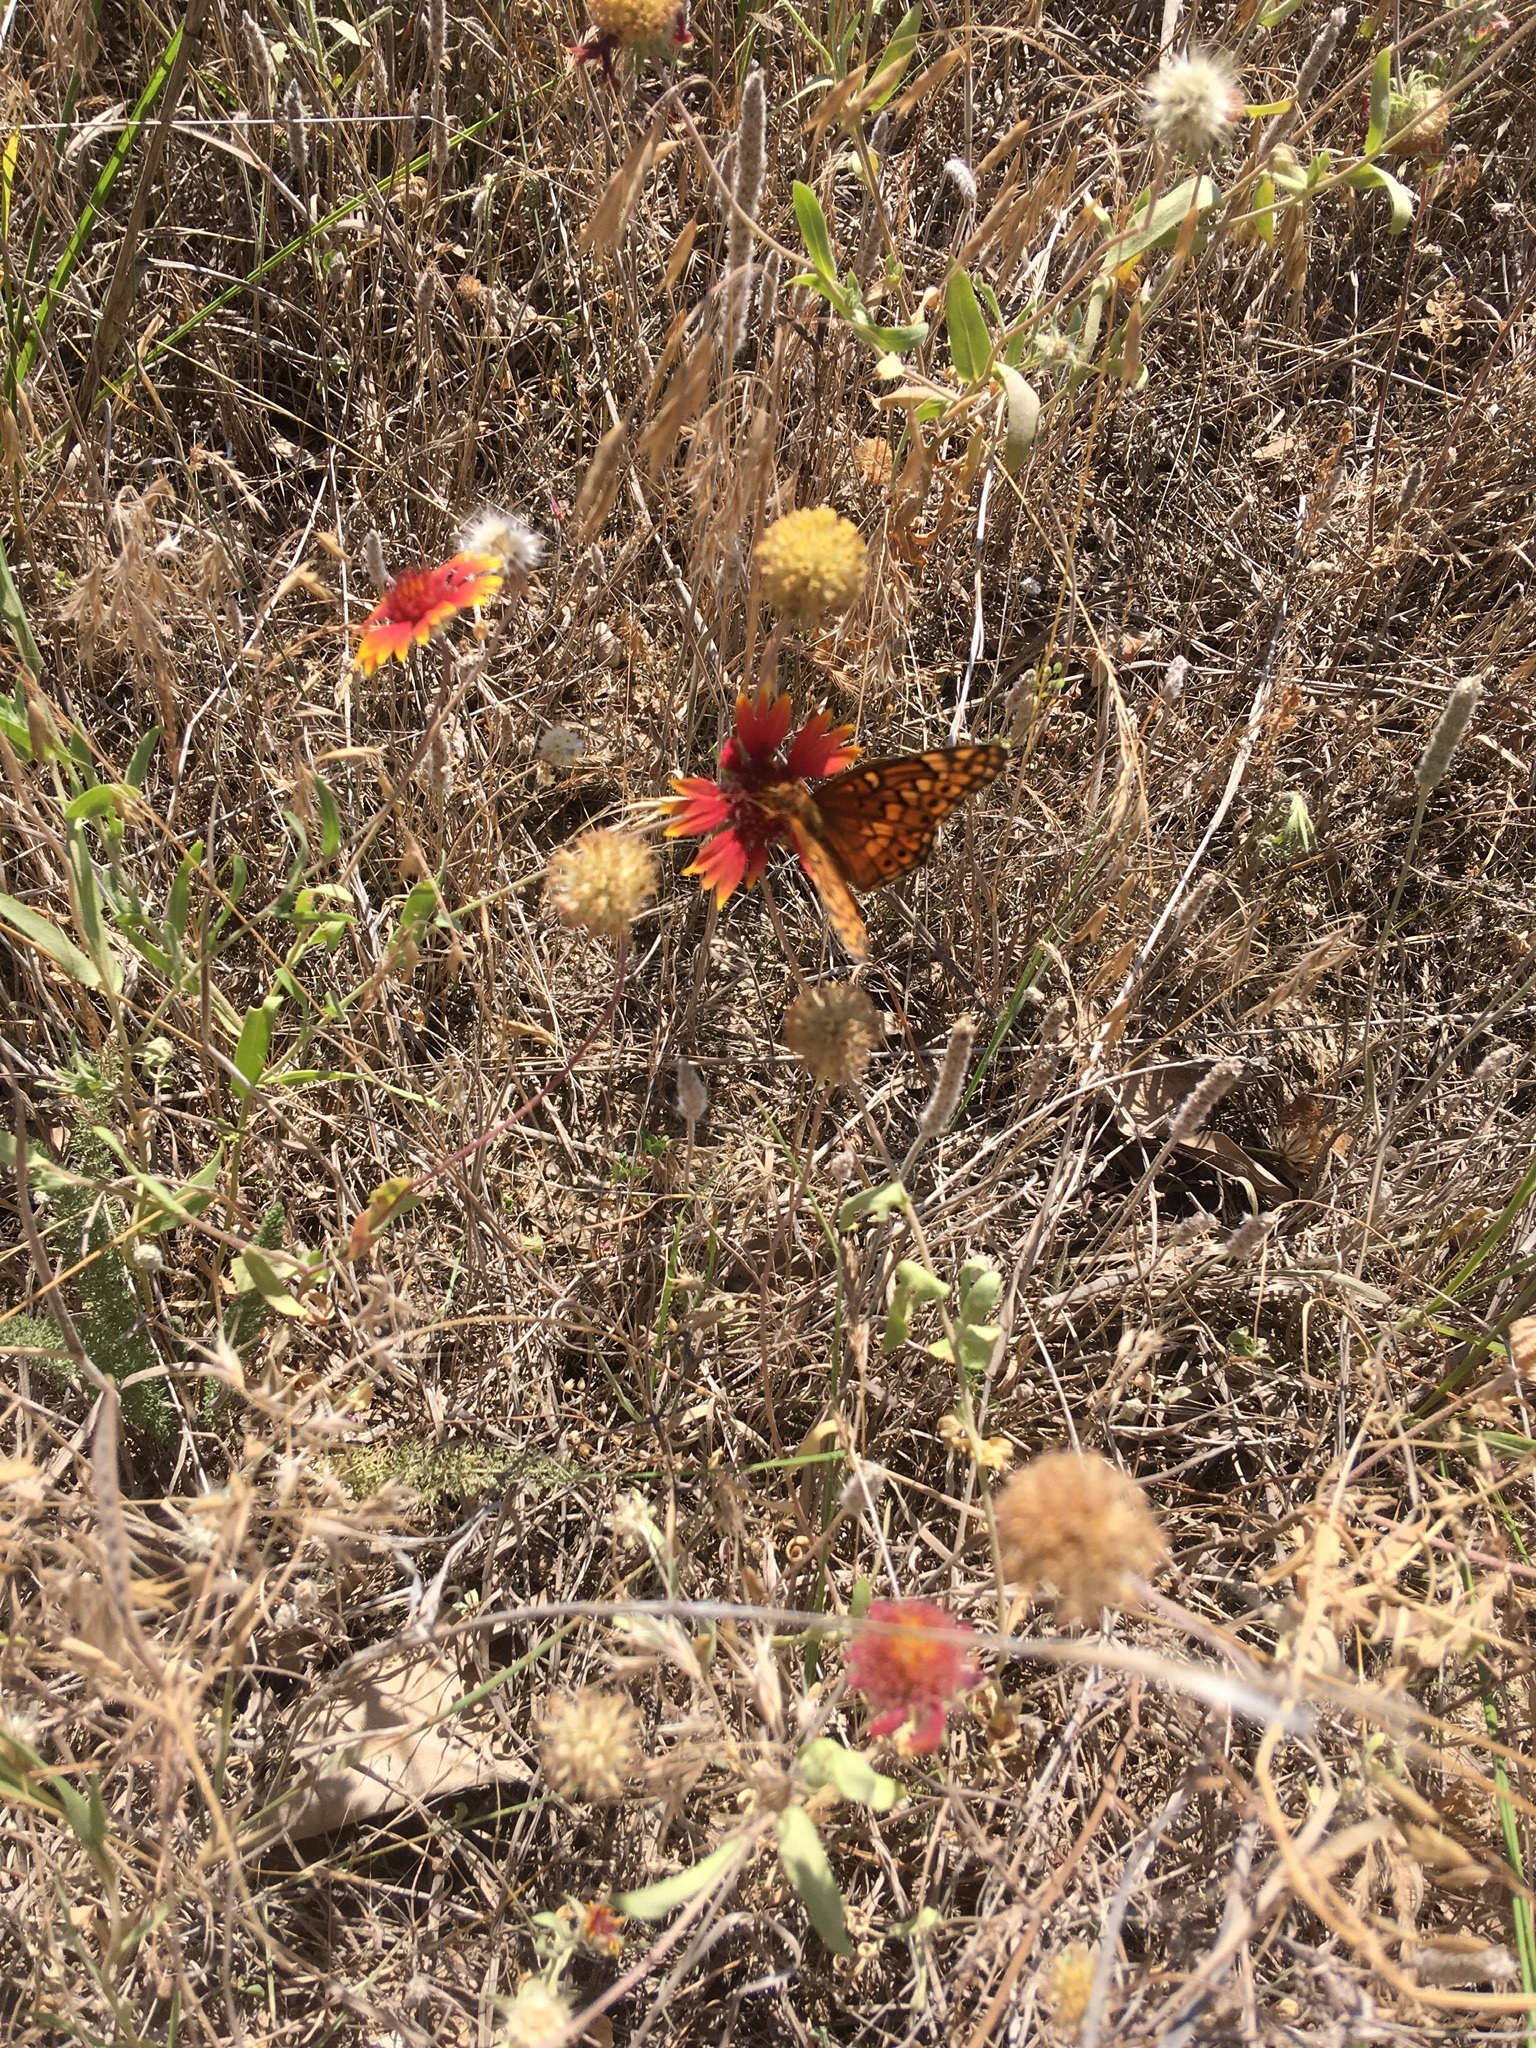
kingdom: Animalia
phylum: Arthropoda
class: Insecta
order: Lepidoptera
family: Nymphalidae
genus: Euptoieta
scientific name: Euptoieta claudia
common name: Variegated fritillary
